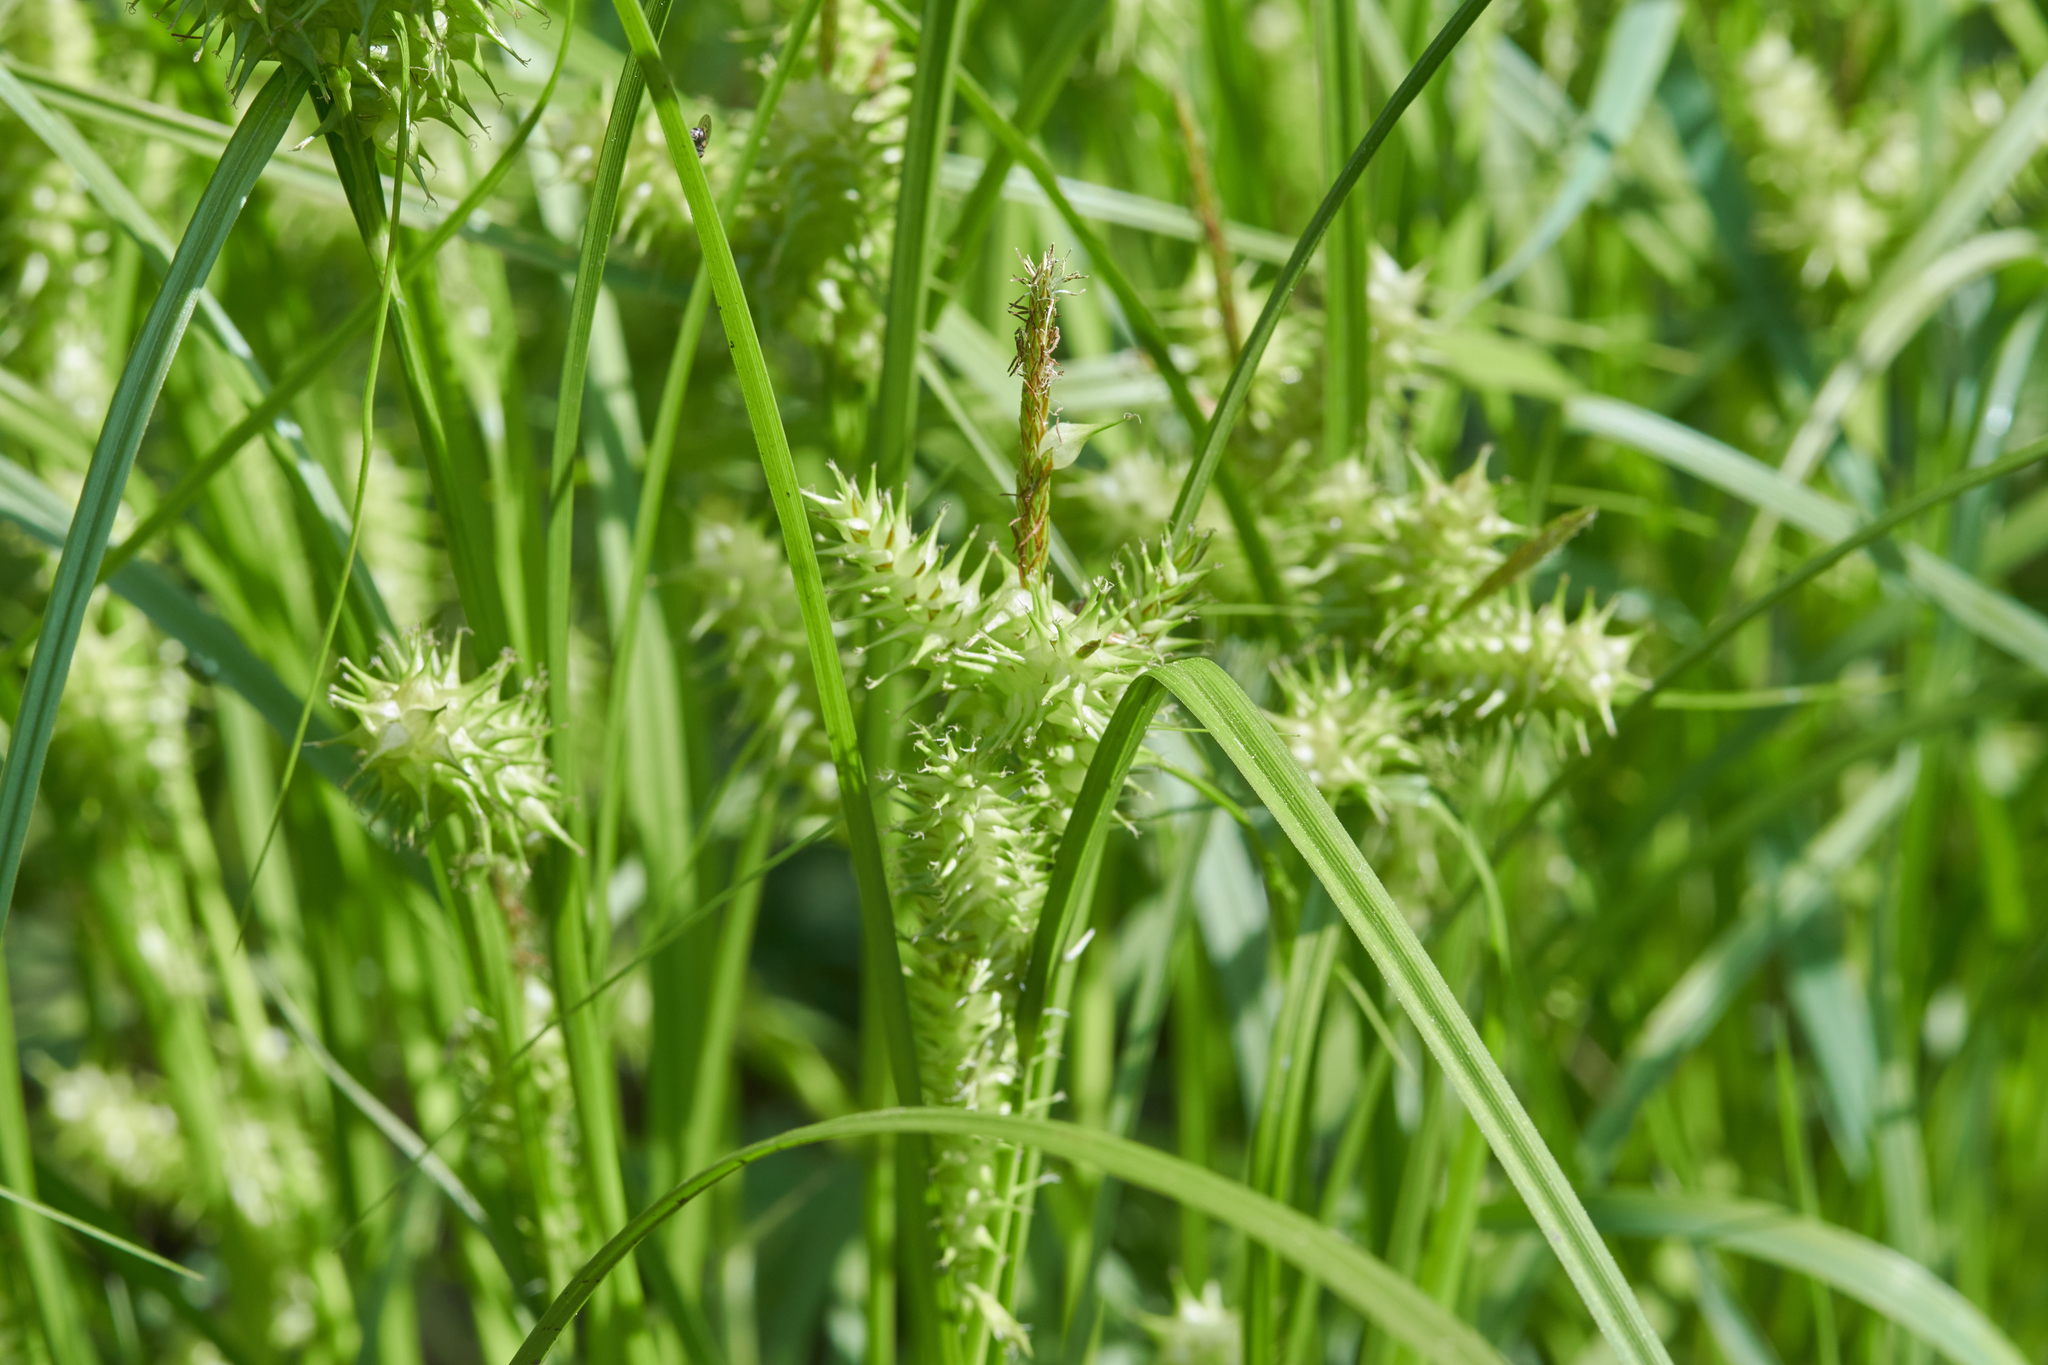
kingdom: Plantae
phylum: Tracheophyta
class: Liliopsida
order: Poales
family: Cyperaceae
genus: Carex
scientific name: Carex retrorsa
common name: Knot-sheath sedge
